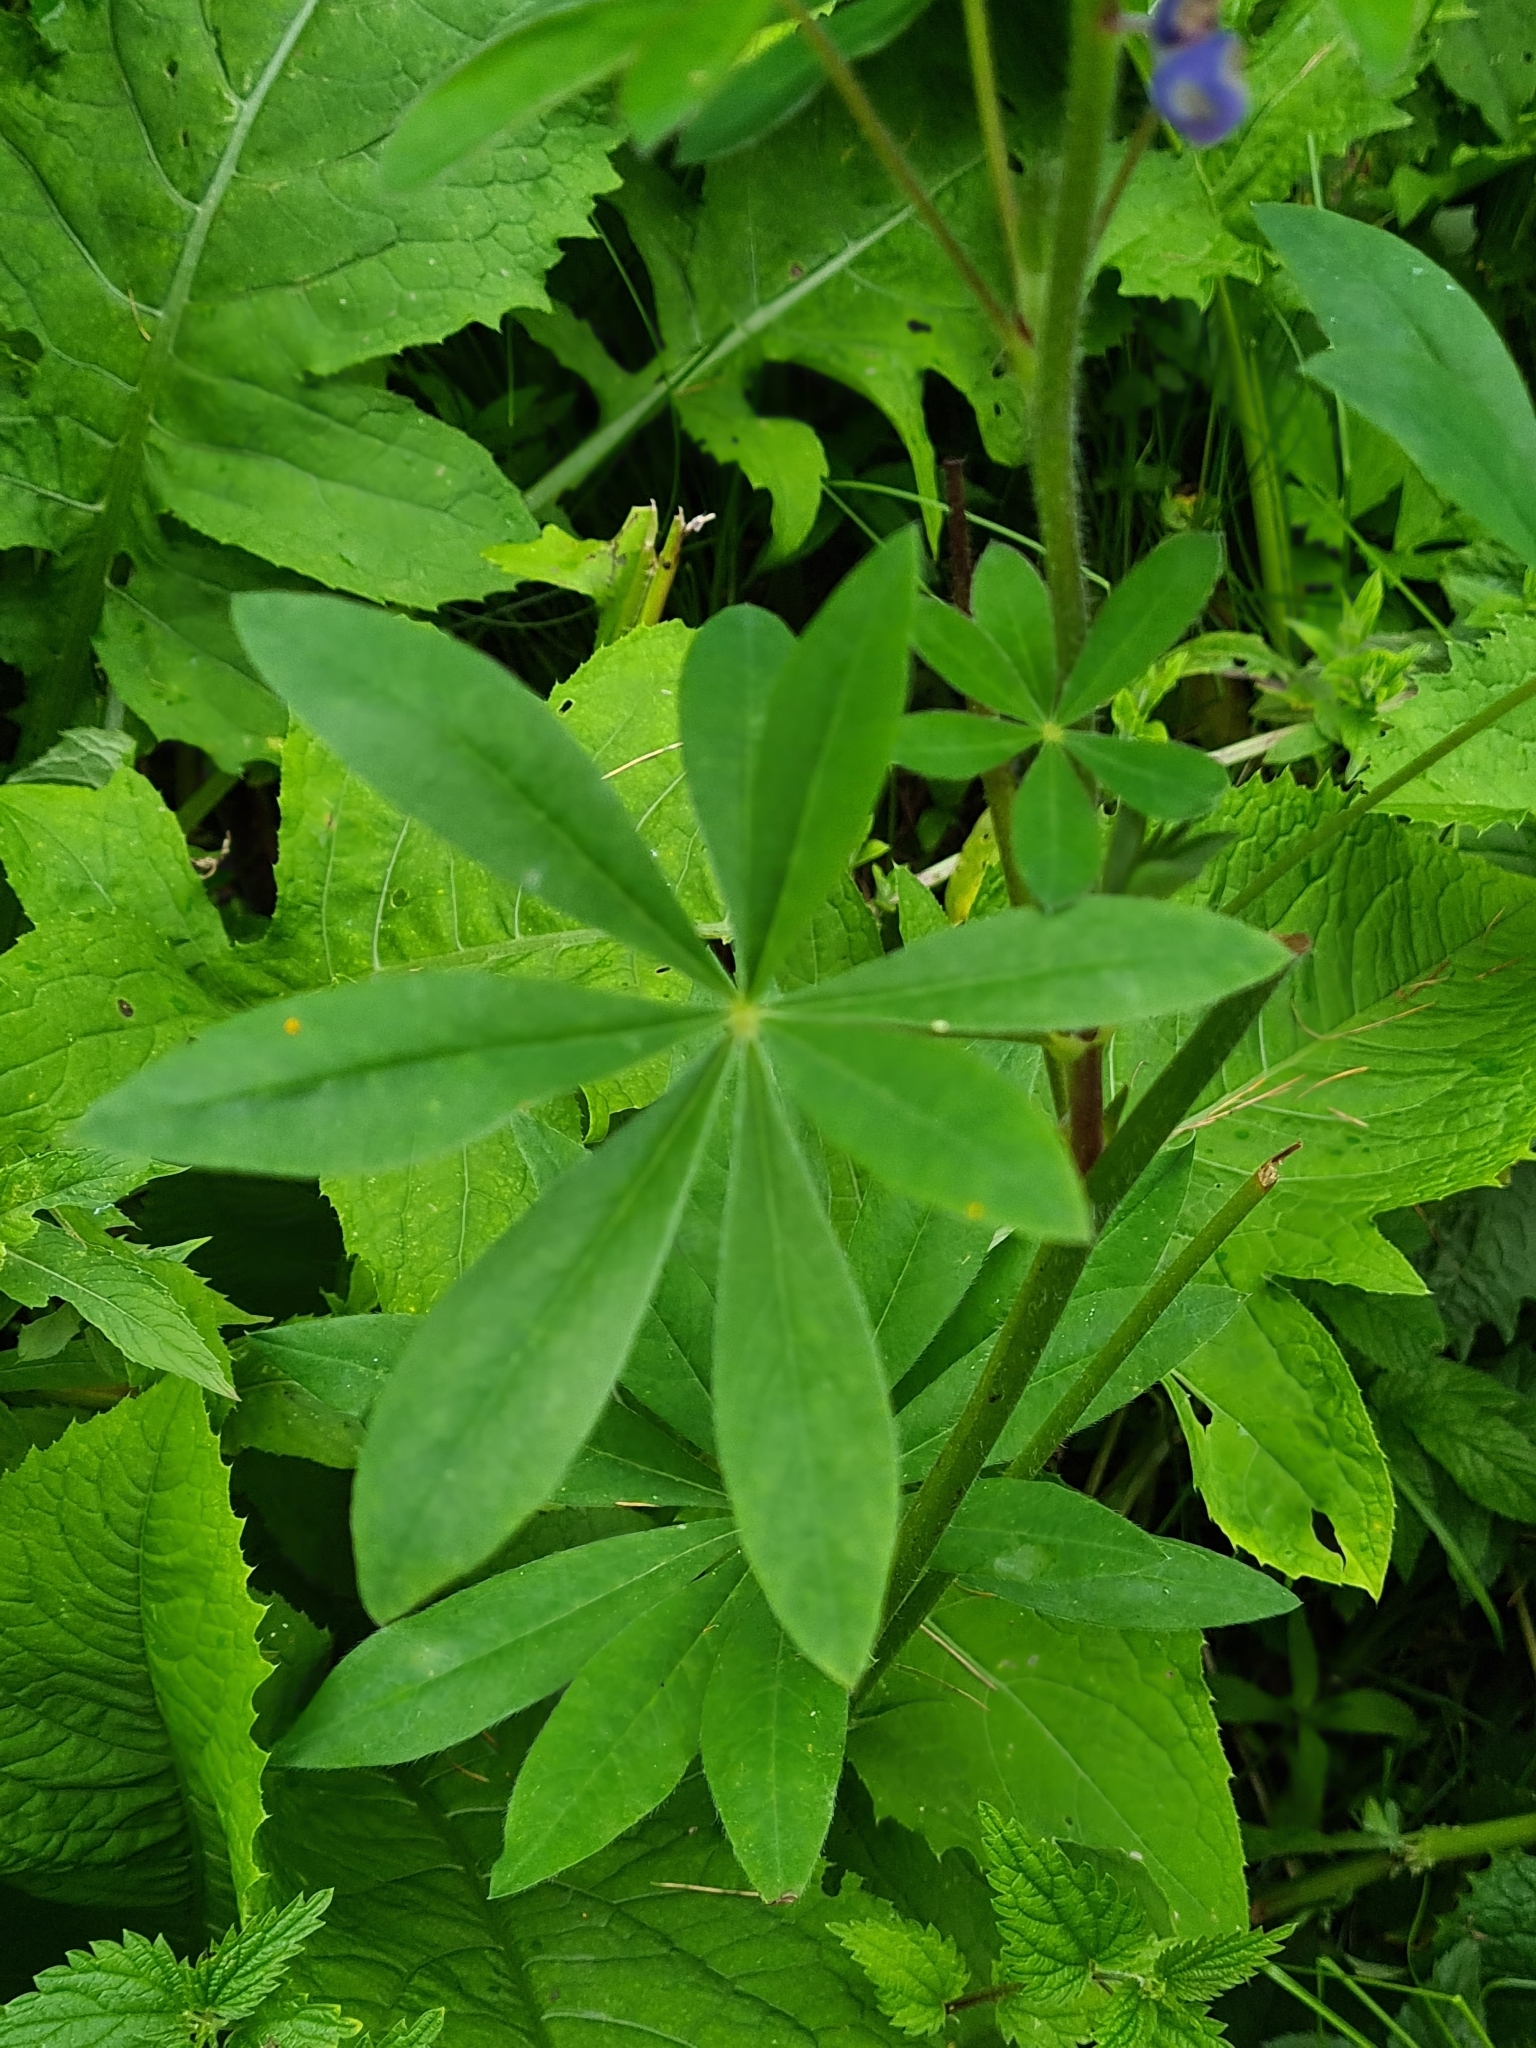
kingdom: Plantae
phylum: Tracheophyta
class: Magnoliopsida
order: Fabales
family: Fabaceae
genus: Lupinus
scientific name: Lupinus polyphyllus
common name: Garden lupin
